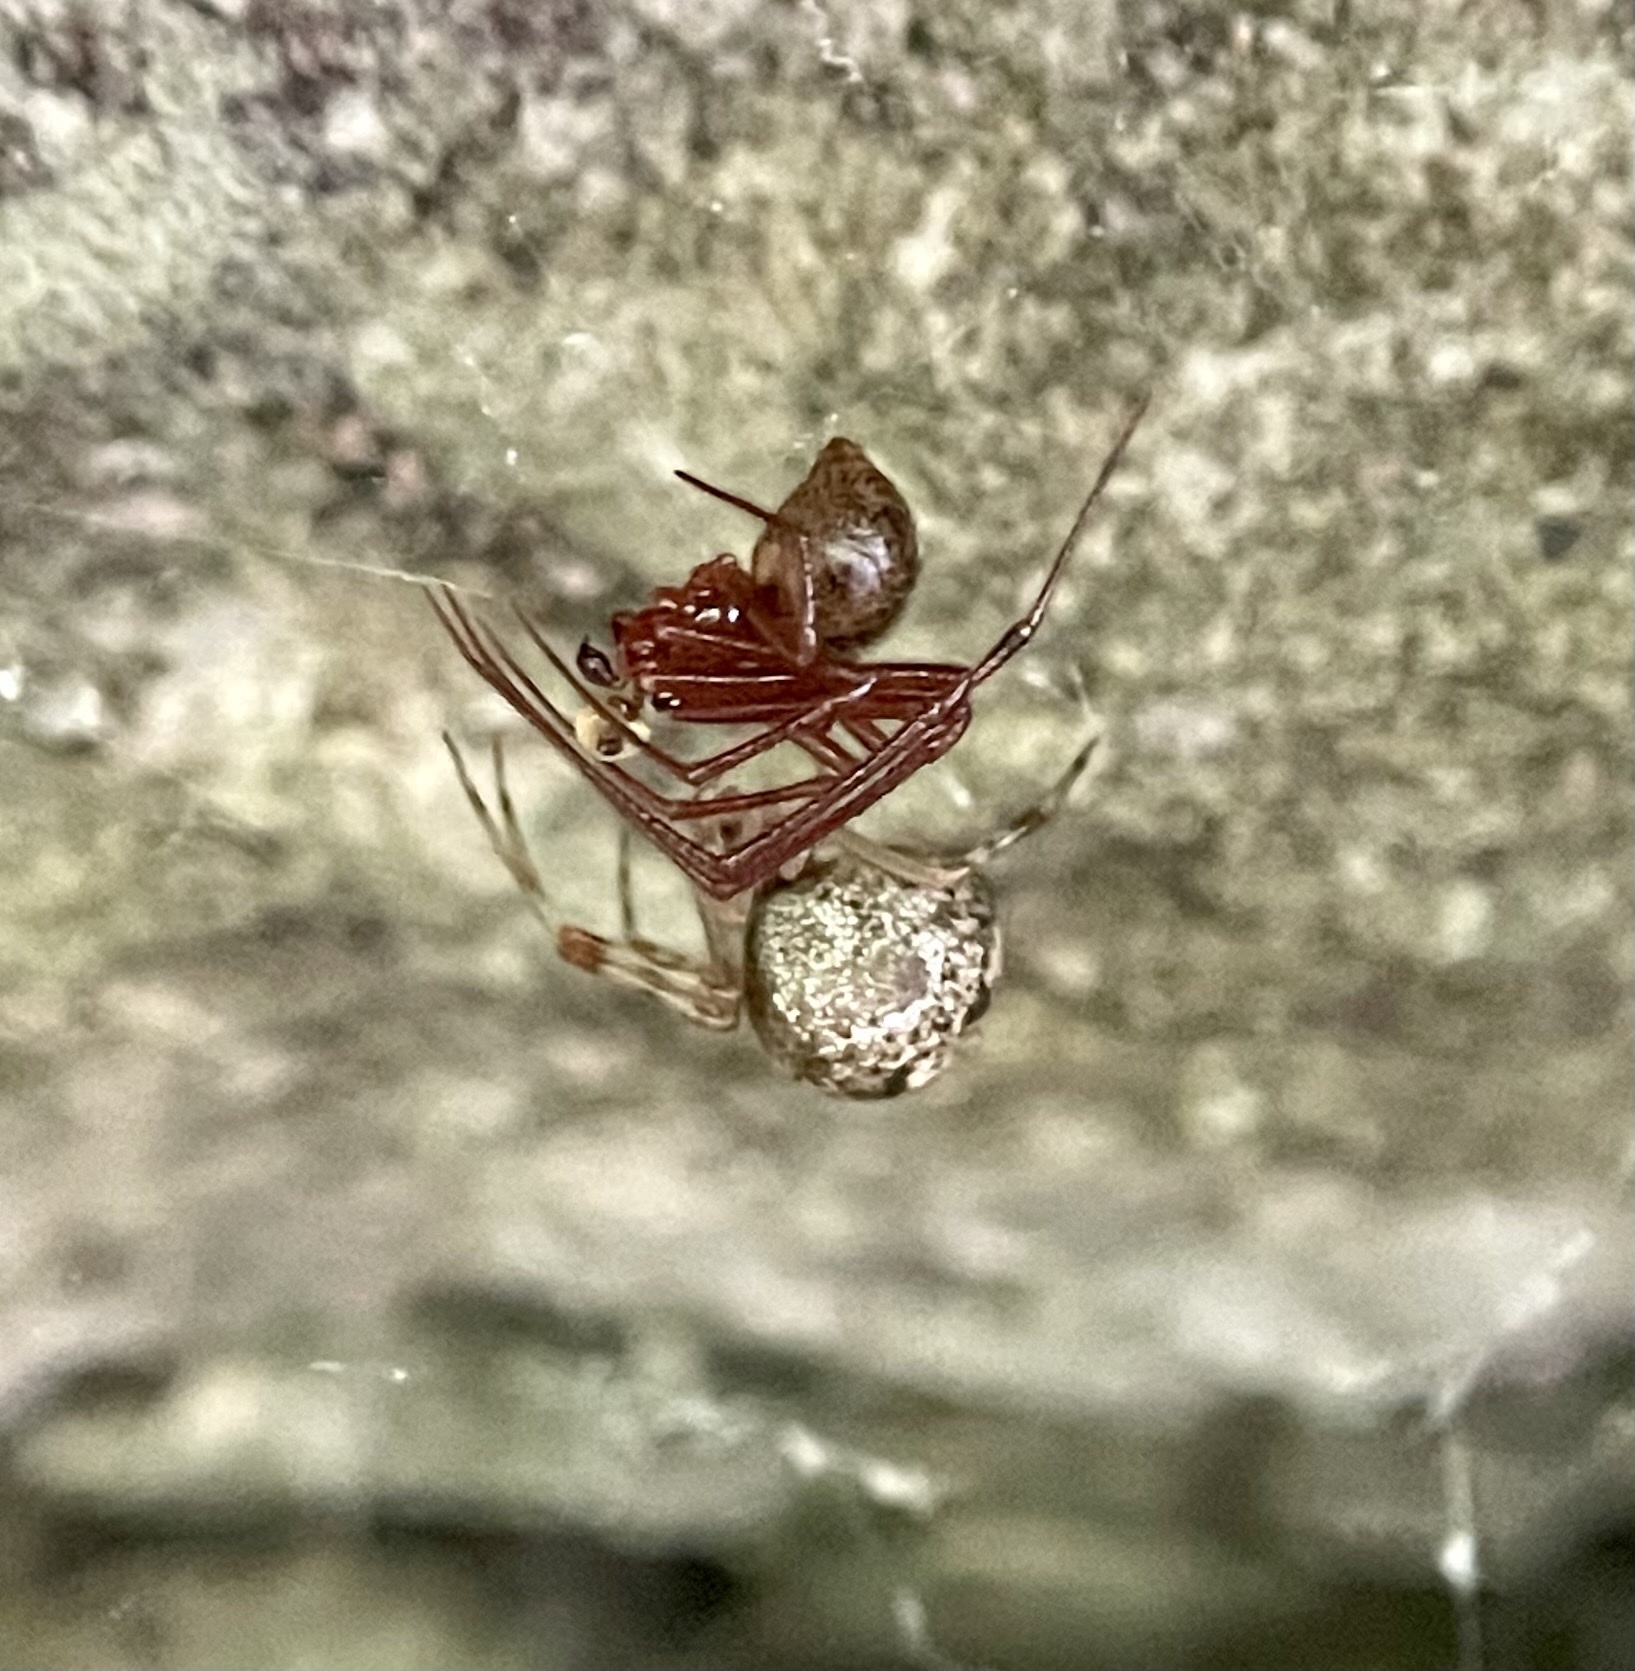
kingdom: Animalia
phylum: Arthropoda
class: Arachnida
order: Araneae
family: Theridiidae
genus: Parasteatoda
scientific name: Parasteatoda tepidariorum
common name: Common house spider
